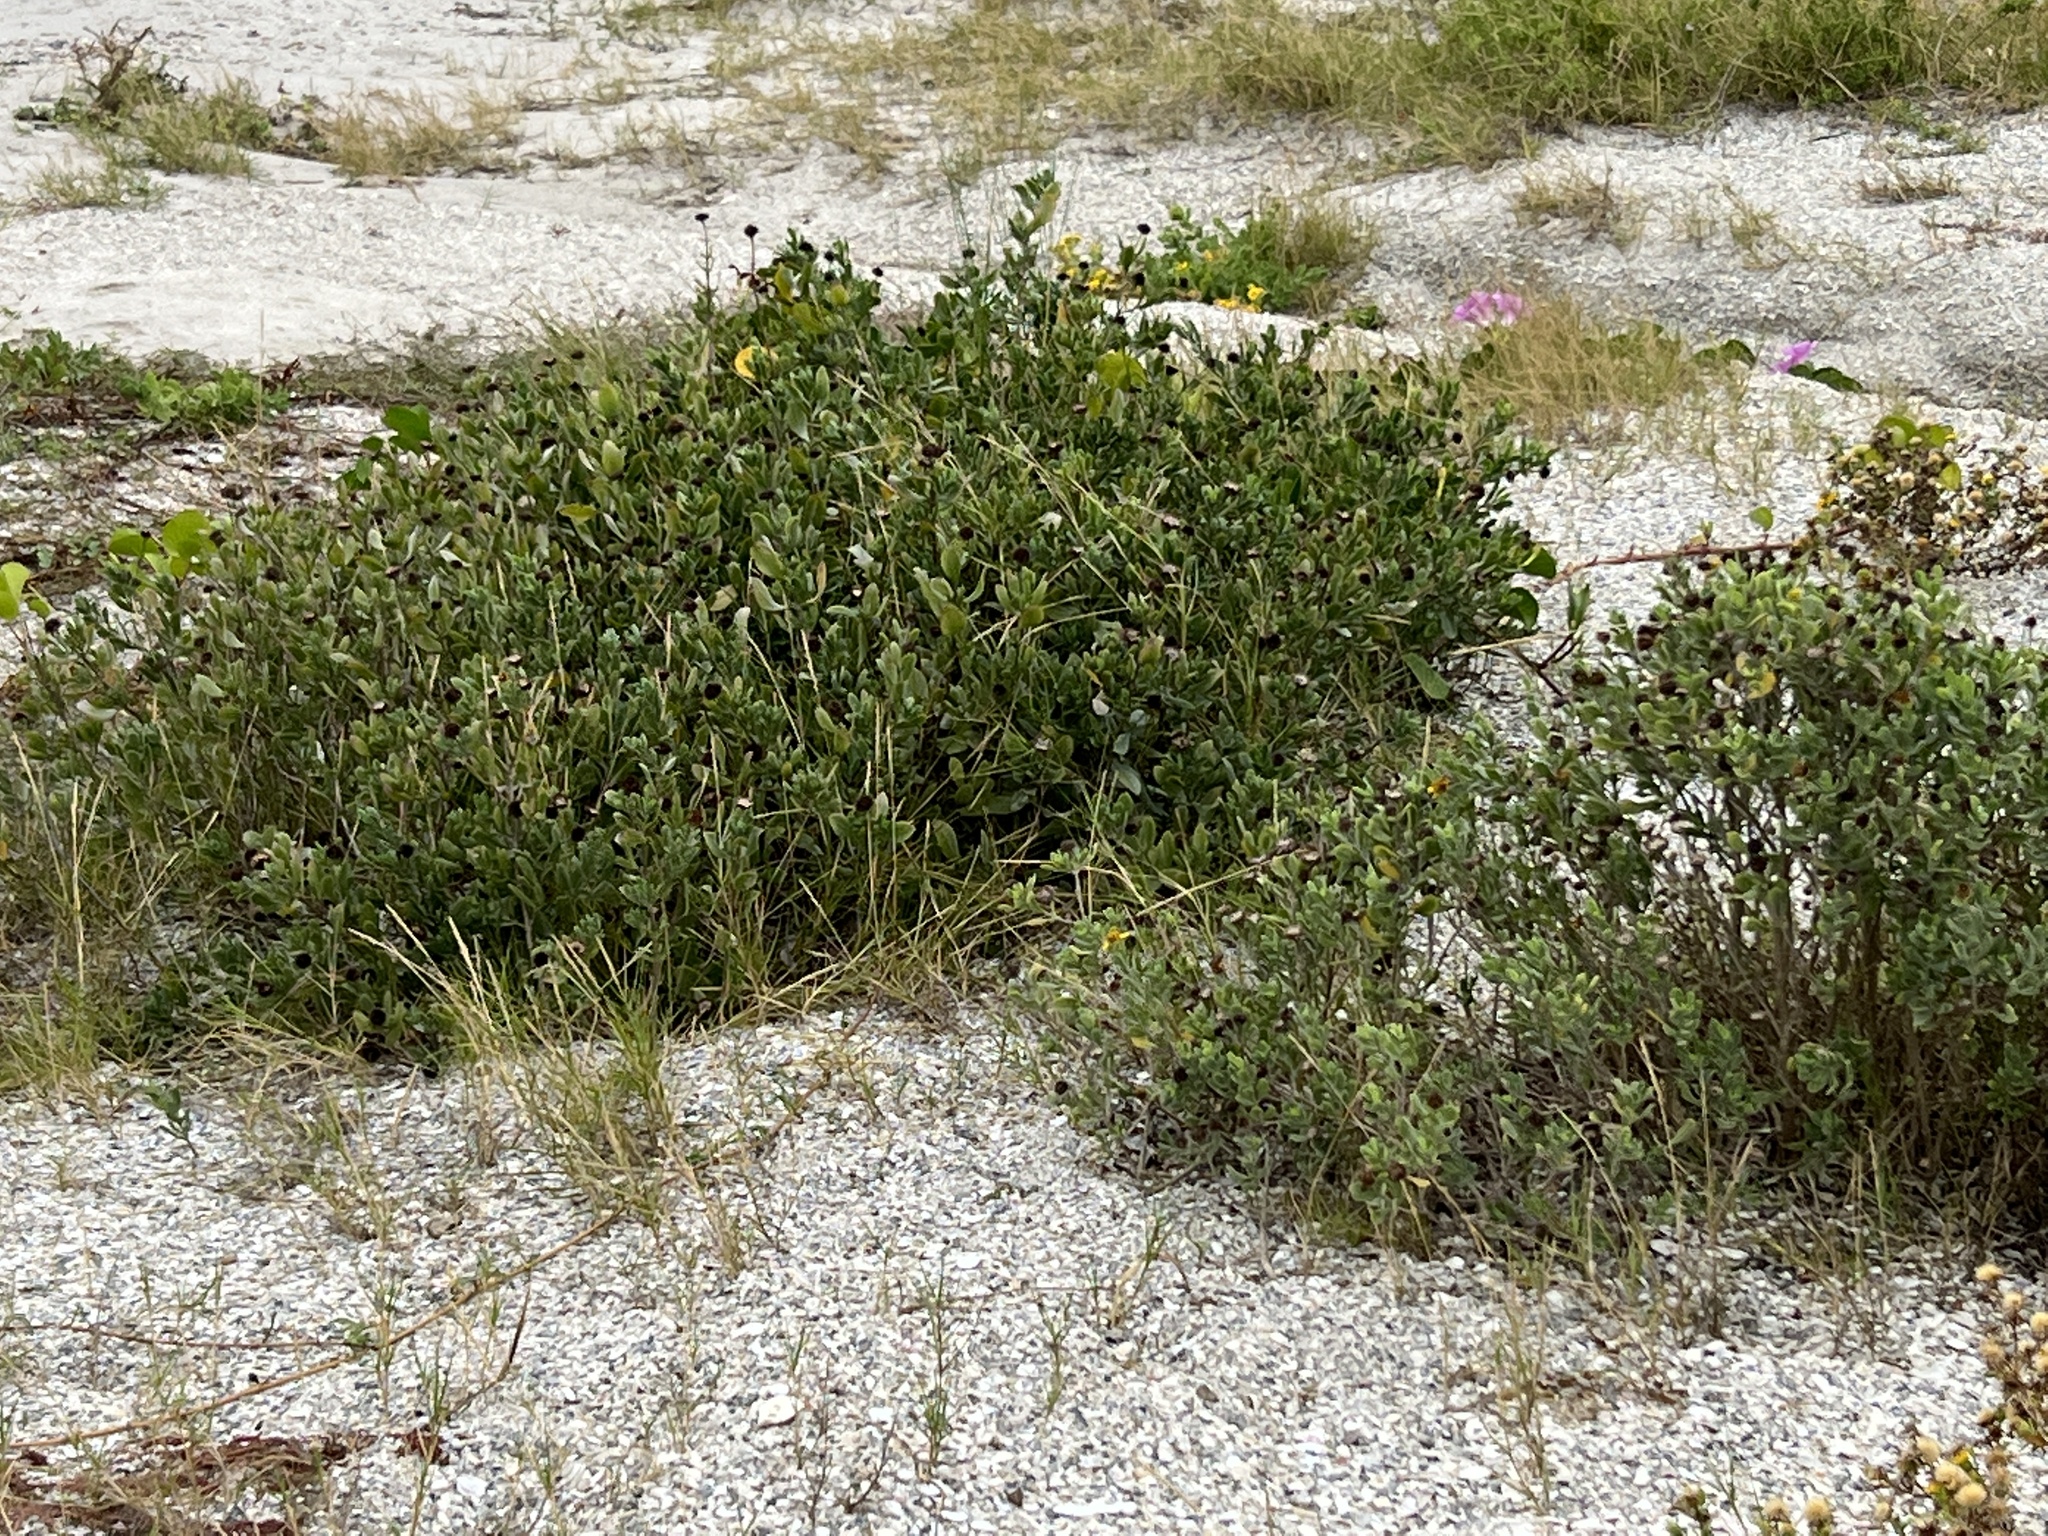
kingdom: Plantae
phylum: Tracheophyta
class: Magnoliopsida
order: Asterales
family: Asteraceae
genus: Borrichia
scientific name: Borrichia frutescens
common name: Sea oxeye
